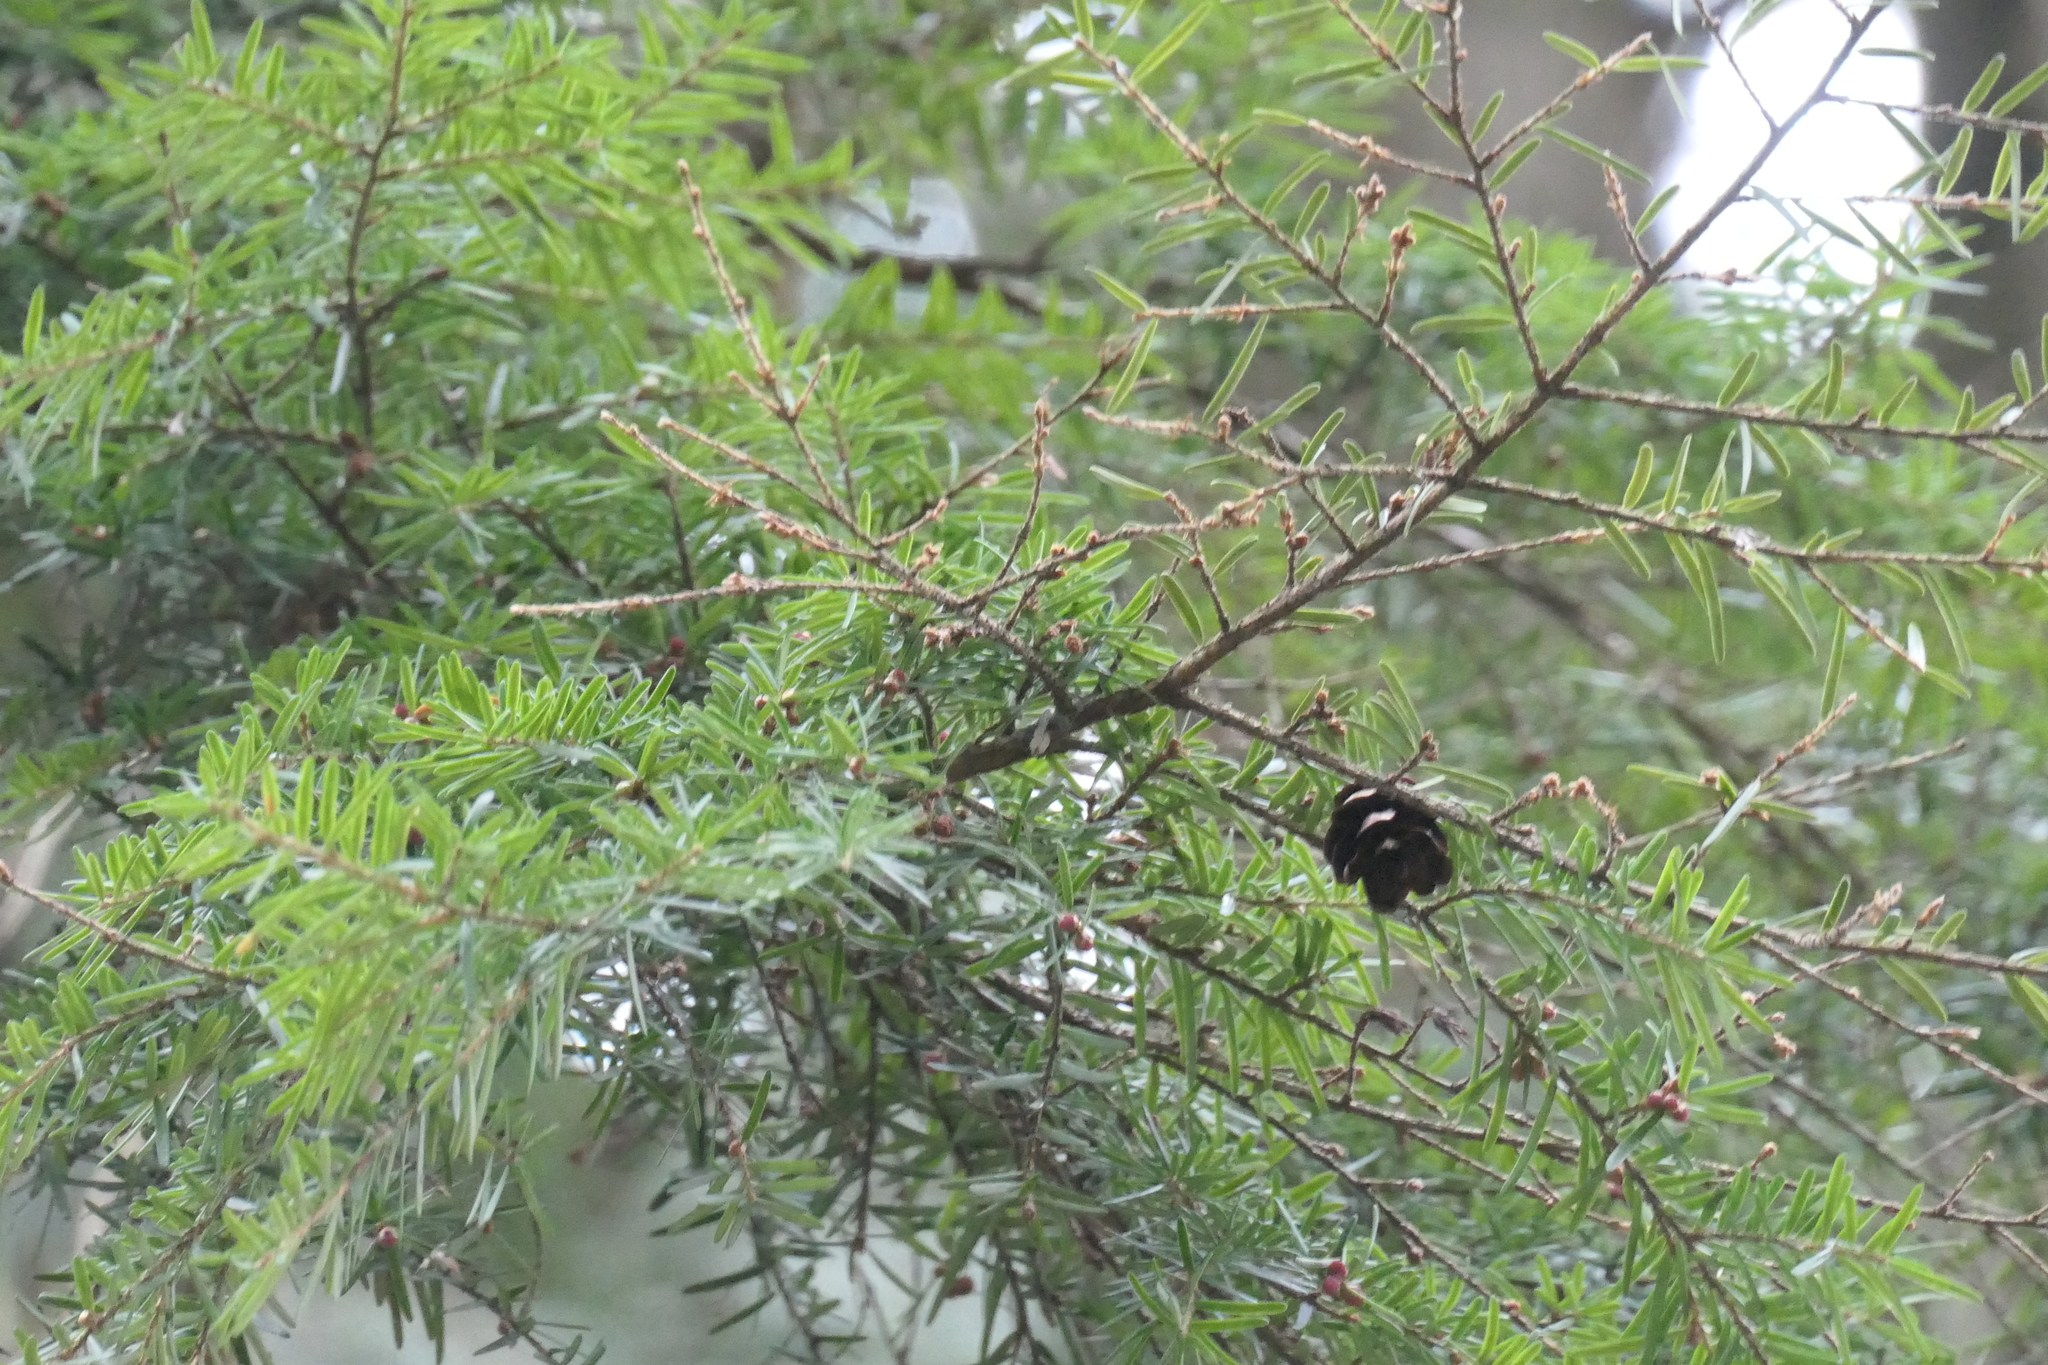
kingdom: Plantae
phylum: Tracheophyta
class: Pinopsida
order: Pinales
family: Pinaceae
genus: Tsuga
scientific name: Tsuga heterophylla
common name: Western hemlock
